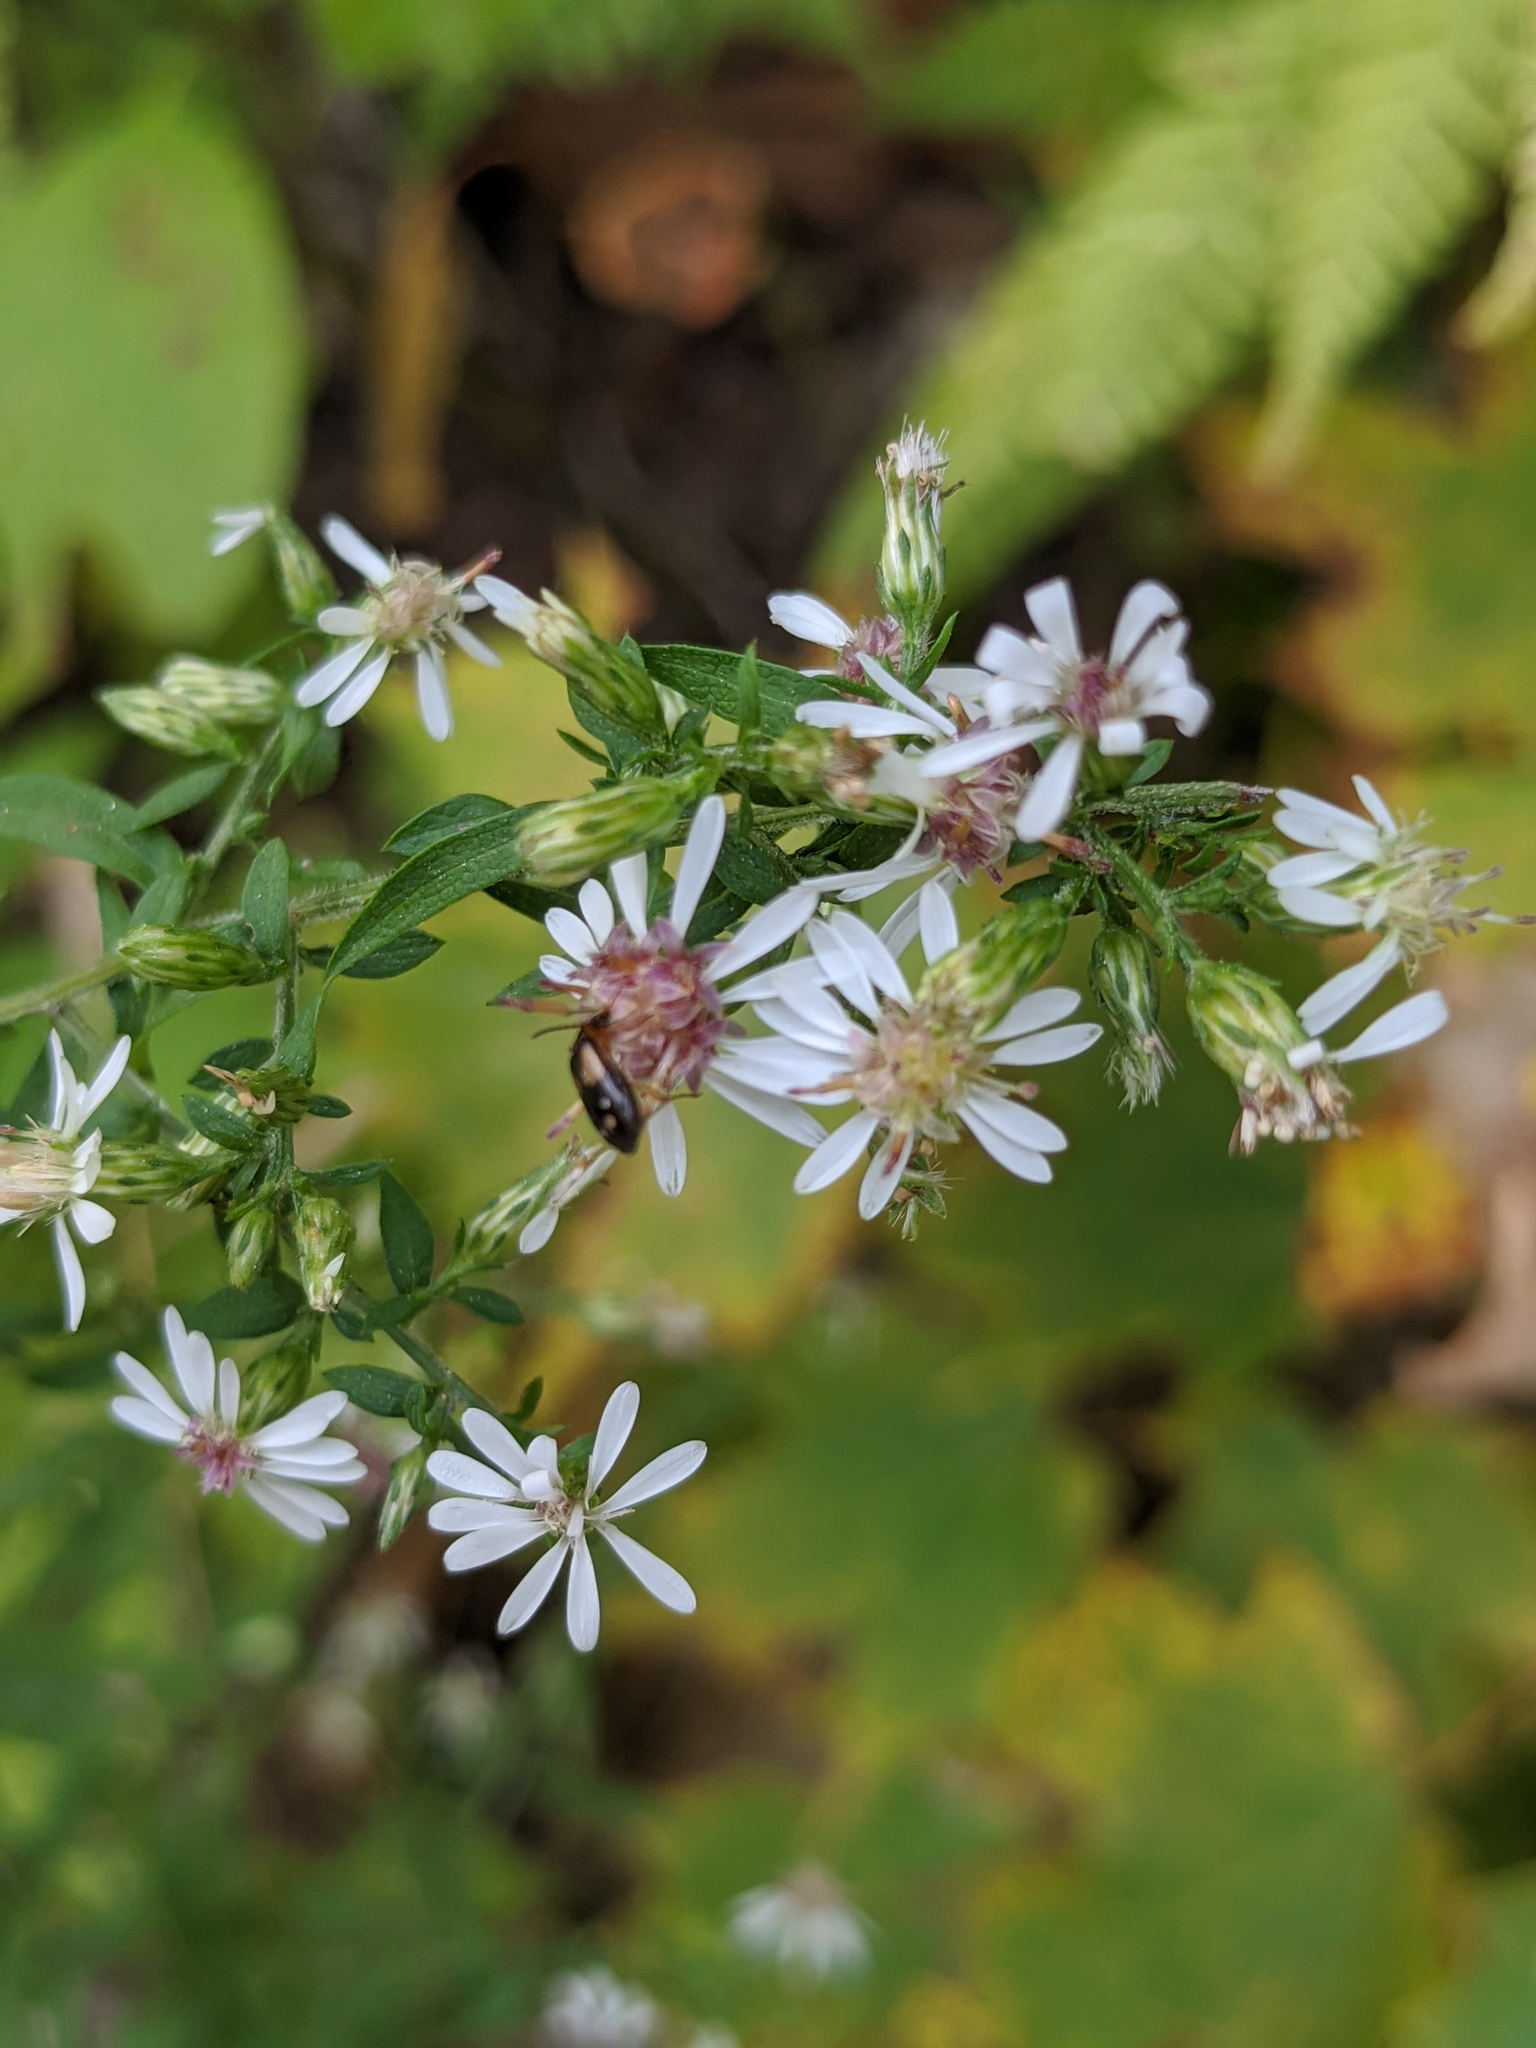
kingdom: Plantae
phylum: Tracheophyta
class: Magnoliopsida
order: Asterales
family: Asteraceae
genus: Symphyotrichum
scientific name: Symphyotrichum lateriflorum
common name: Calico aster
